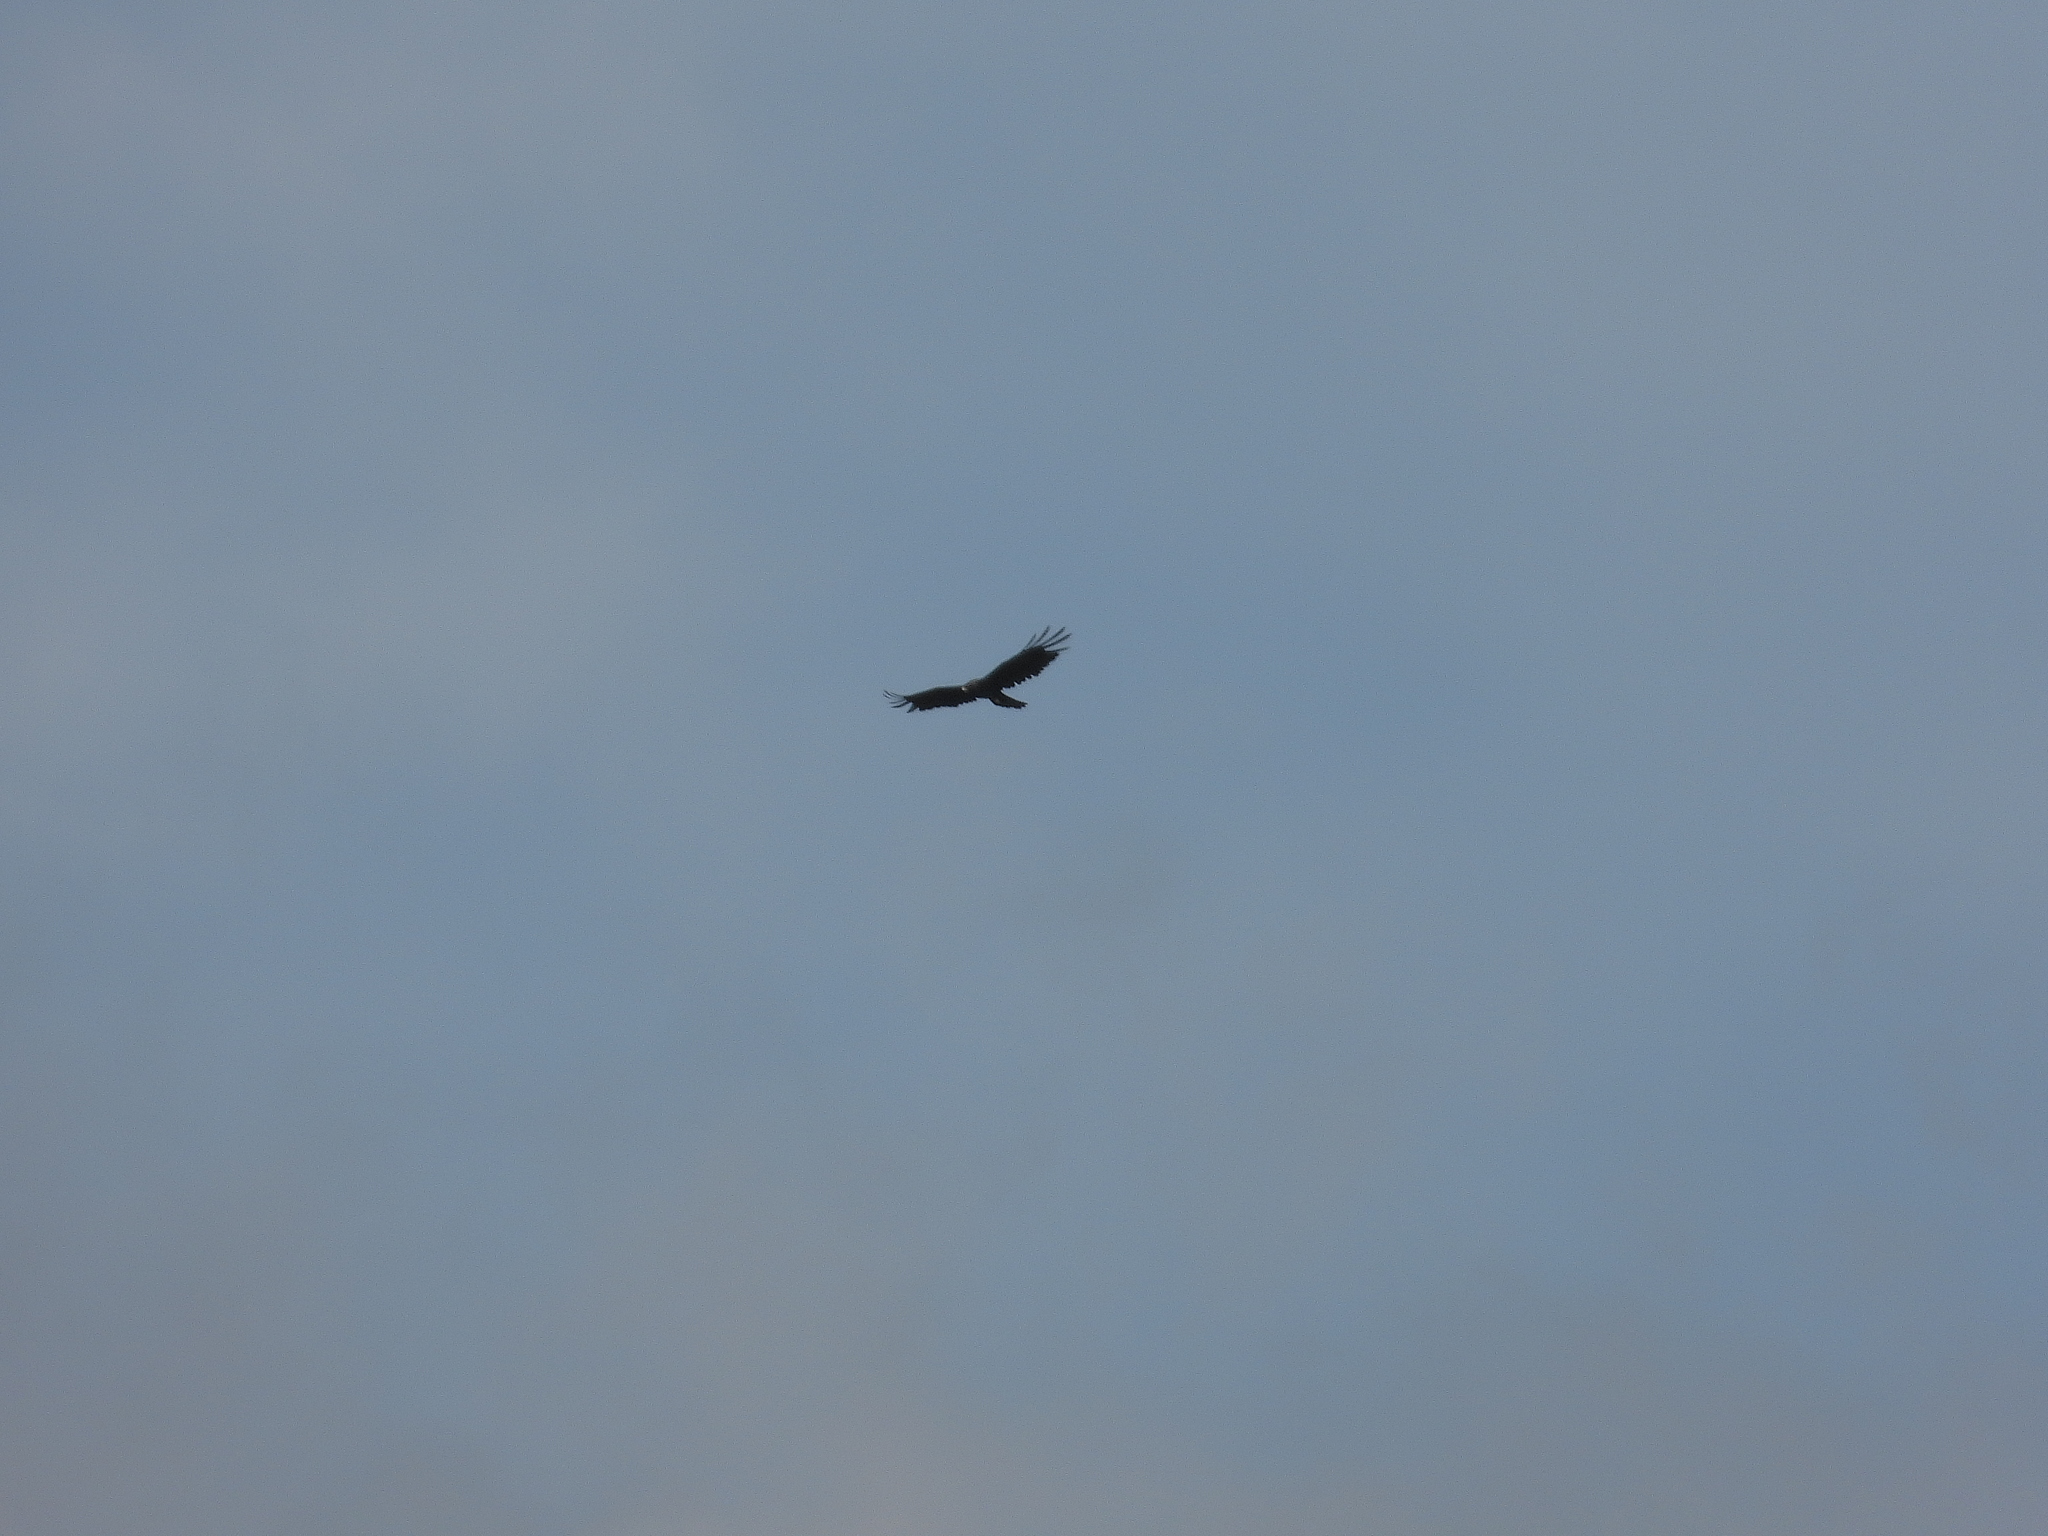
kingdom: Animalia
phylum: Chordata
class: Aves
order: Accipitriformes
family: Accipitridae
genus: Ictinaetus
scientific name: Ictinaetus malayensis
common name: Black eagle
